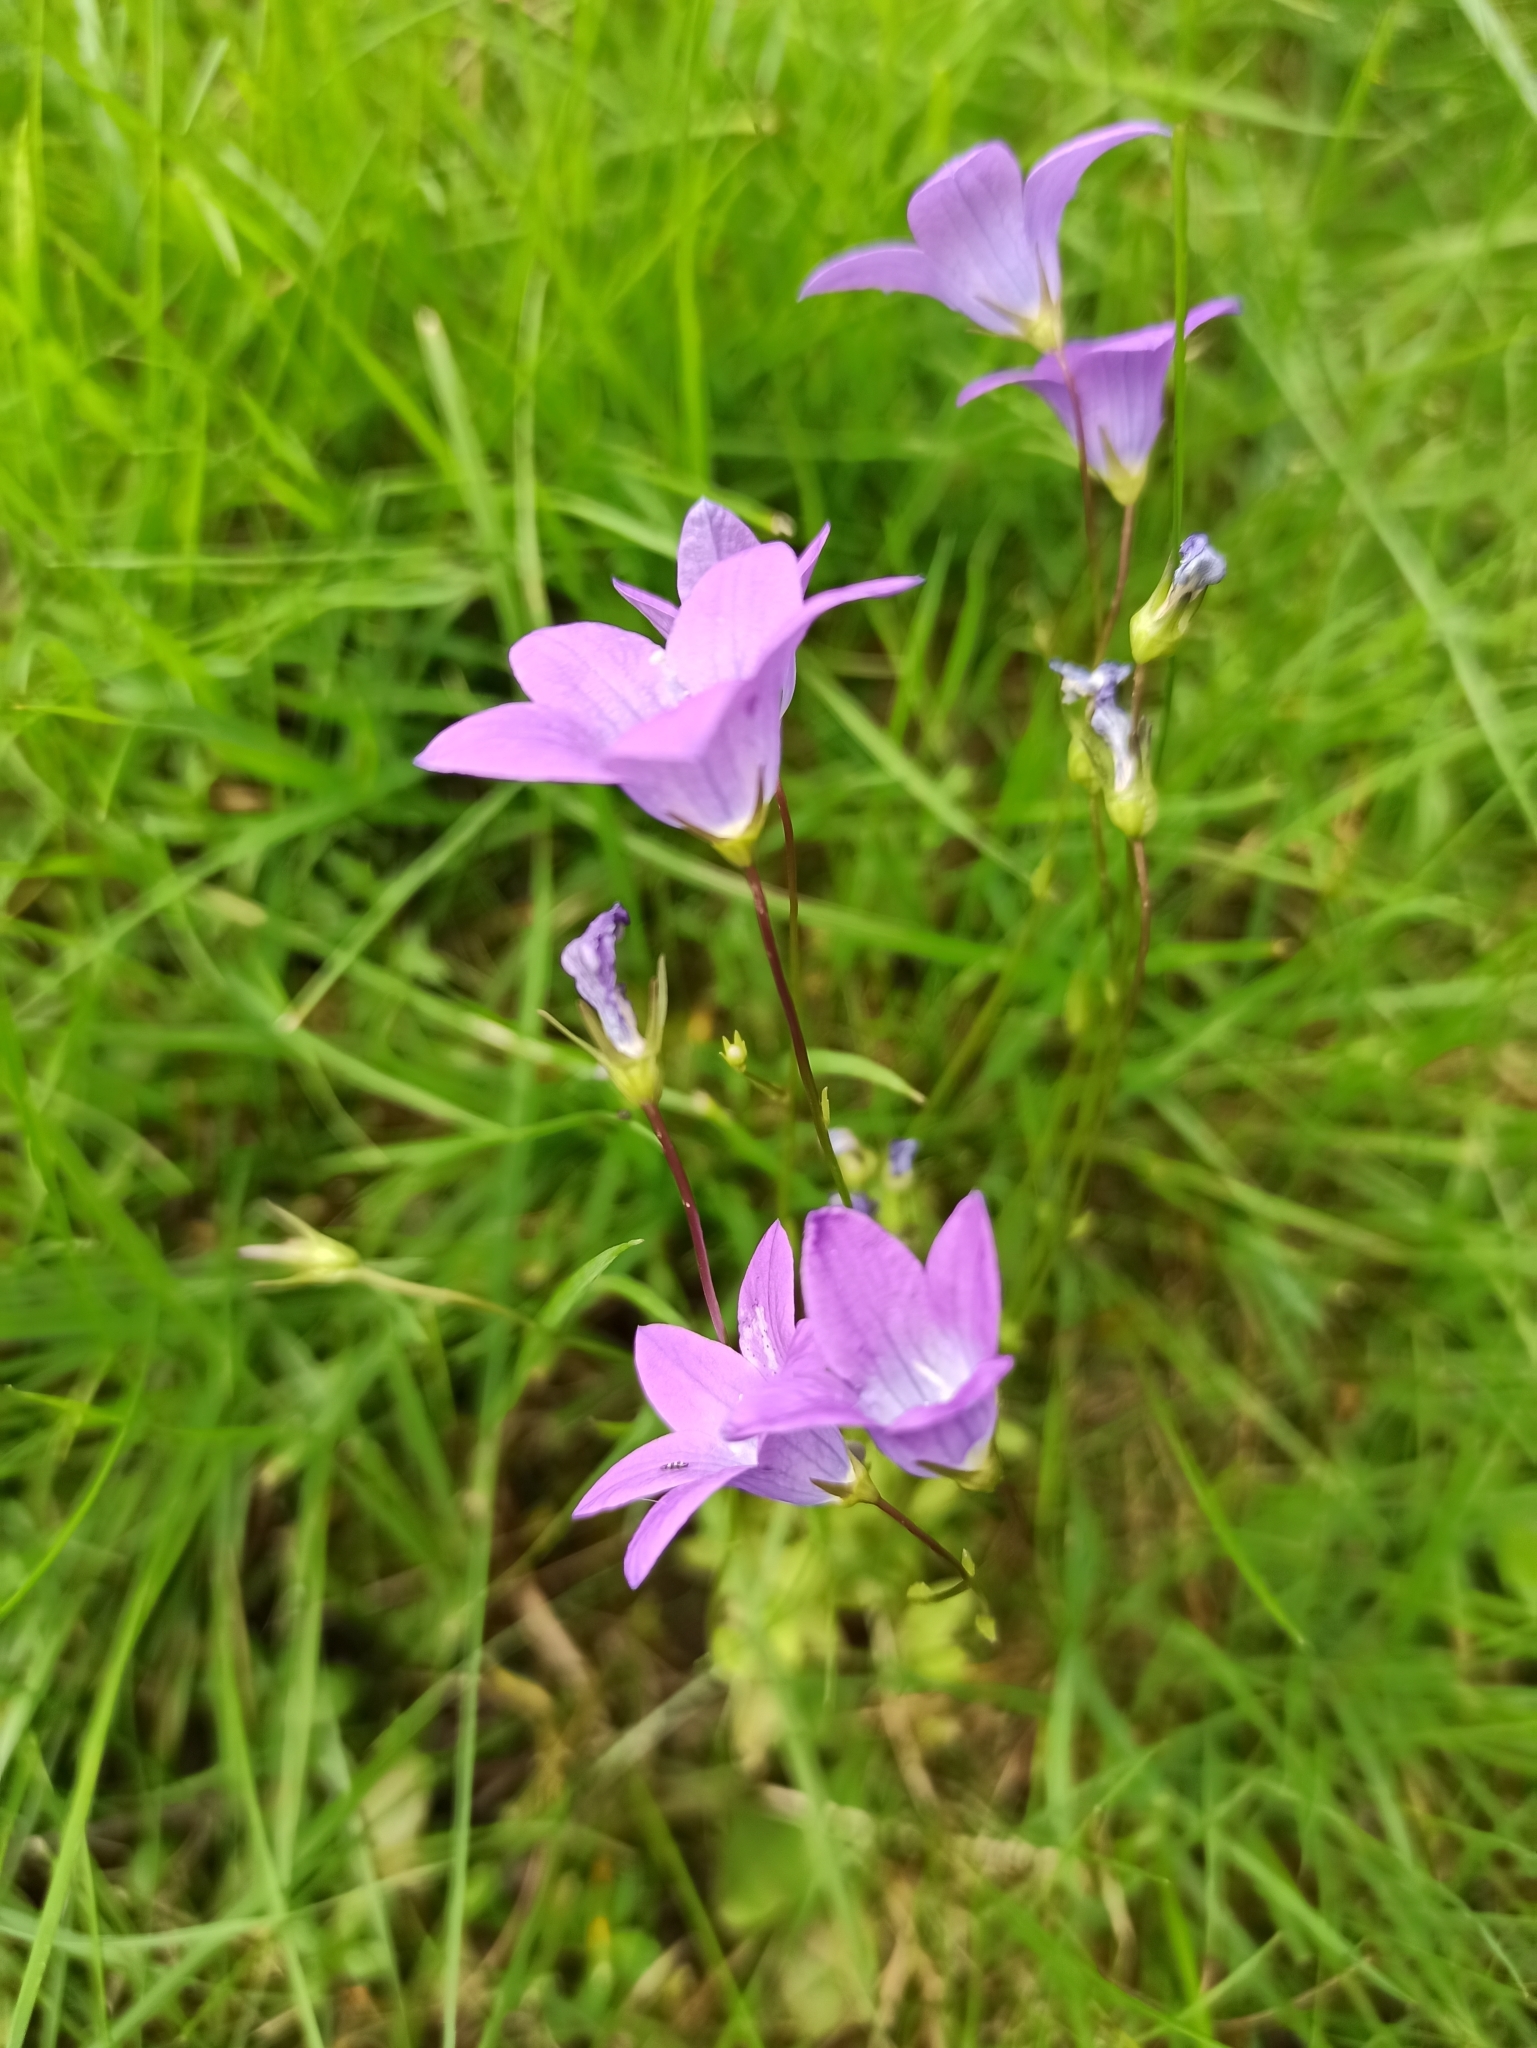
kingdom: Plantae
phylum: Tracheophyta
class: Magnoliopsida
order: Asterales
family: Campanulaceae
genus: Campanula
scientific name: Campanula patula
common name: Spreading bellflower
